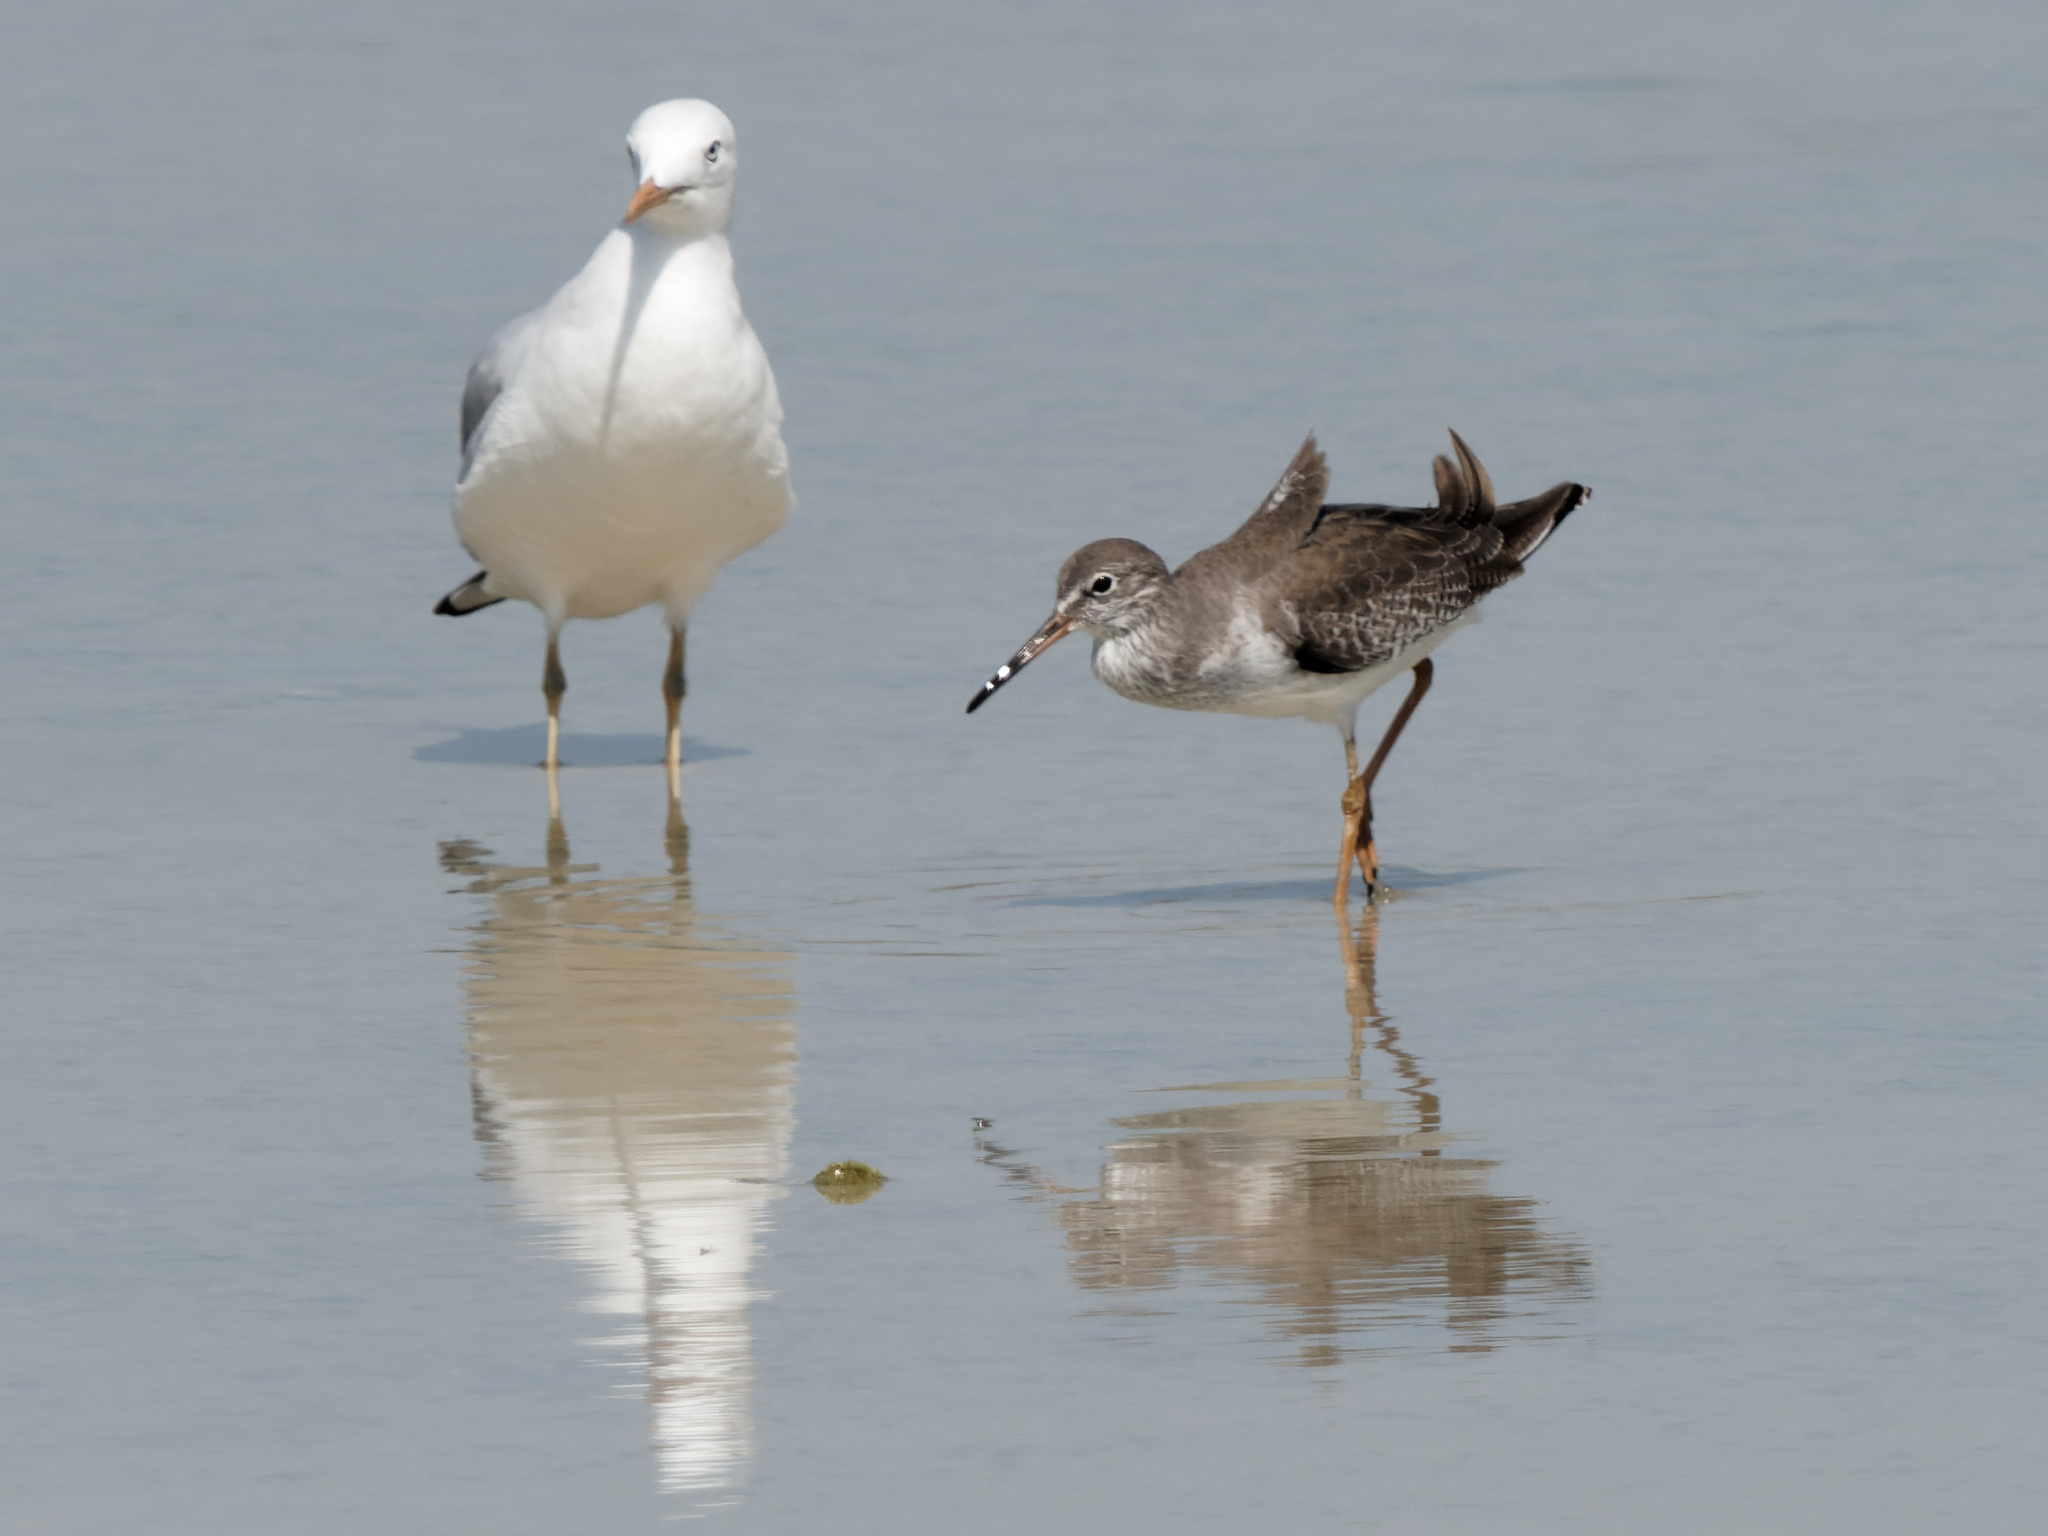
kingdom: Animalia
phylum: Chordata
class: Aves
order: Charadriiformes
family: Scolopacidae
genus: Tringa
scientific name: Tringa totanus
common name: Common redshank
